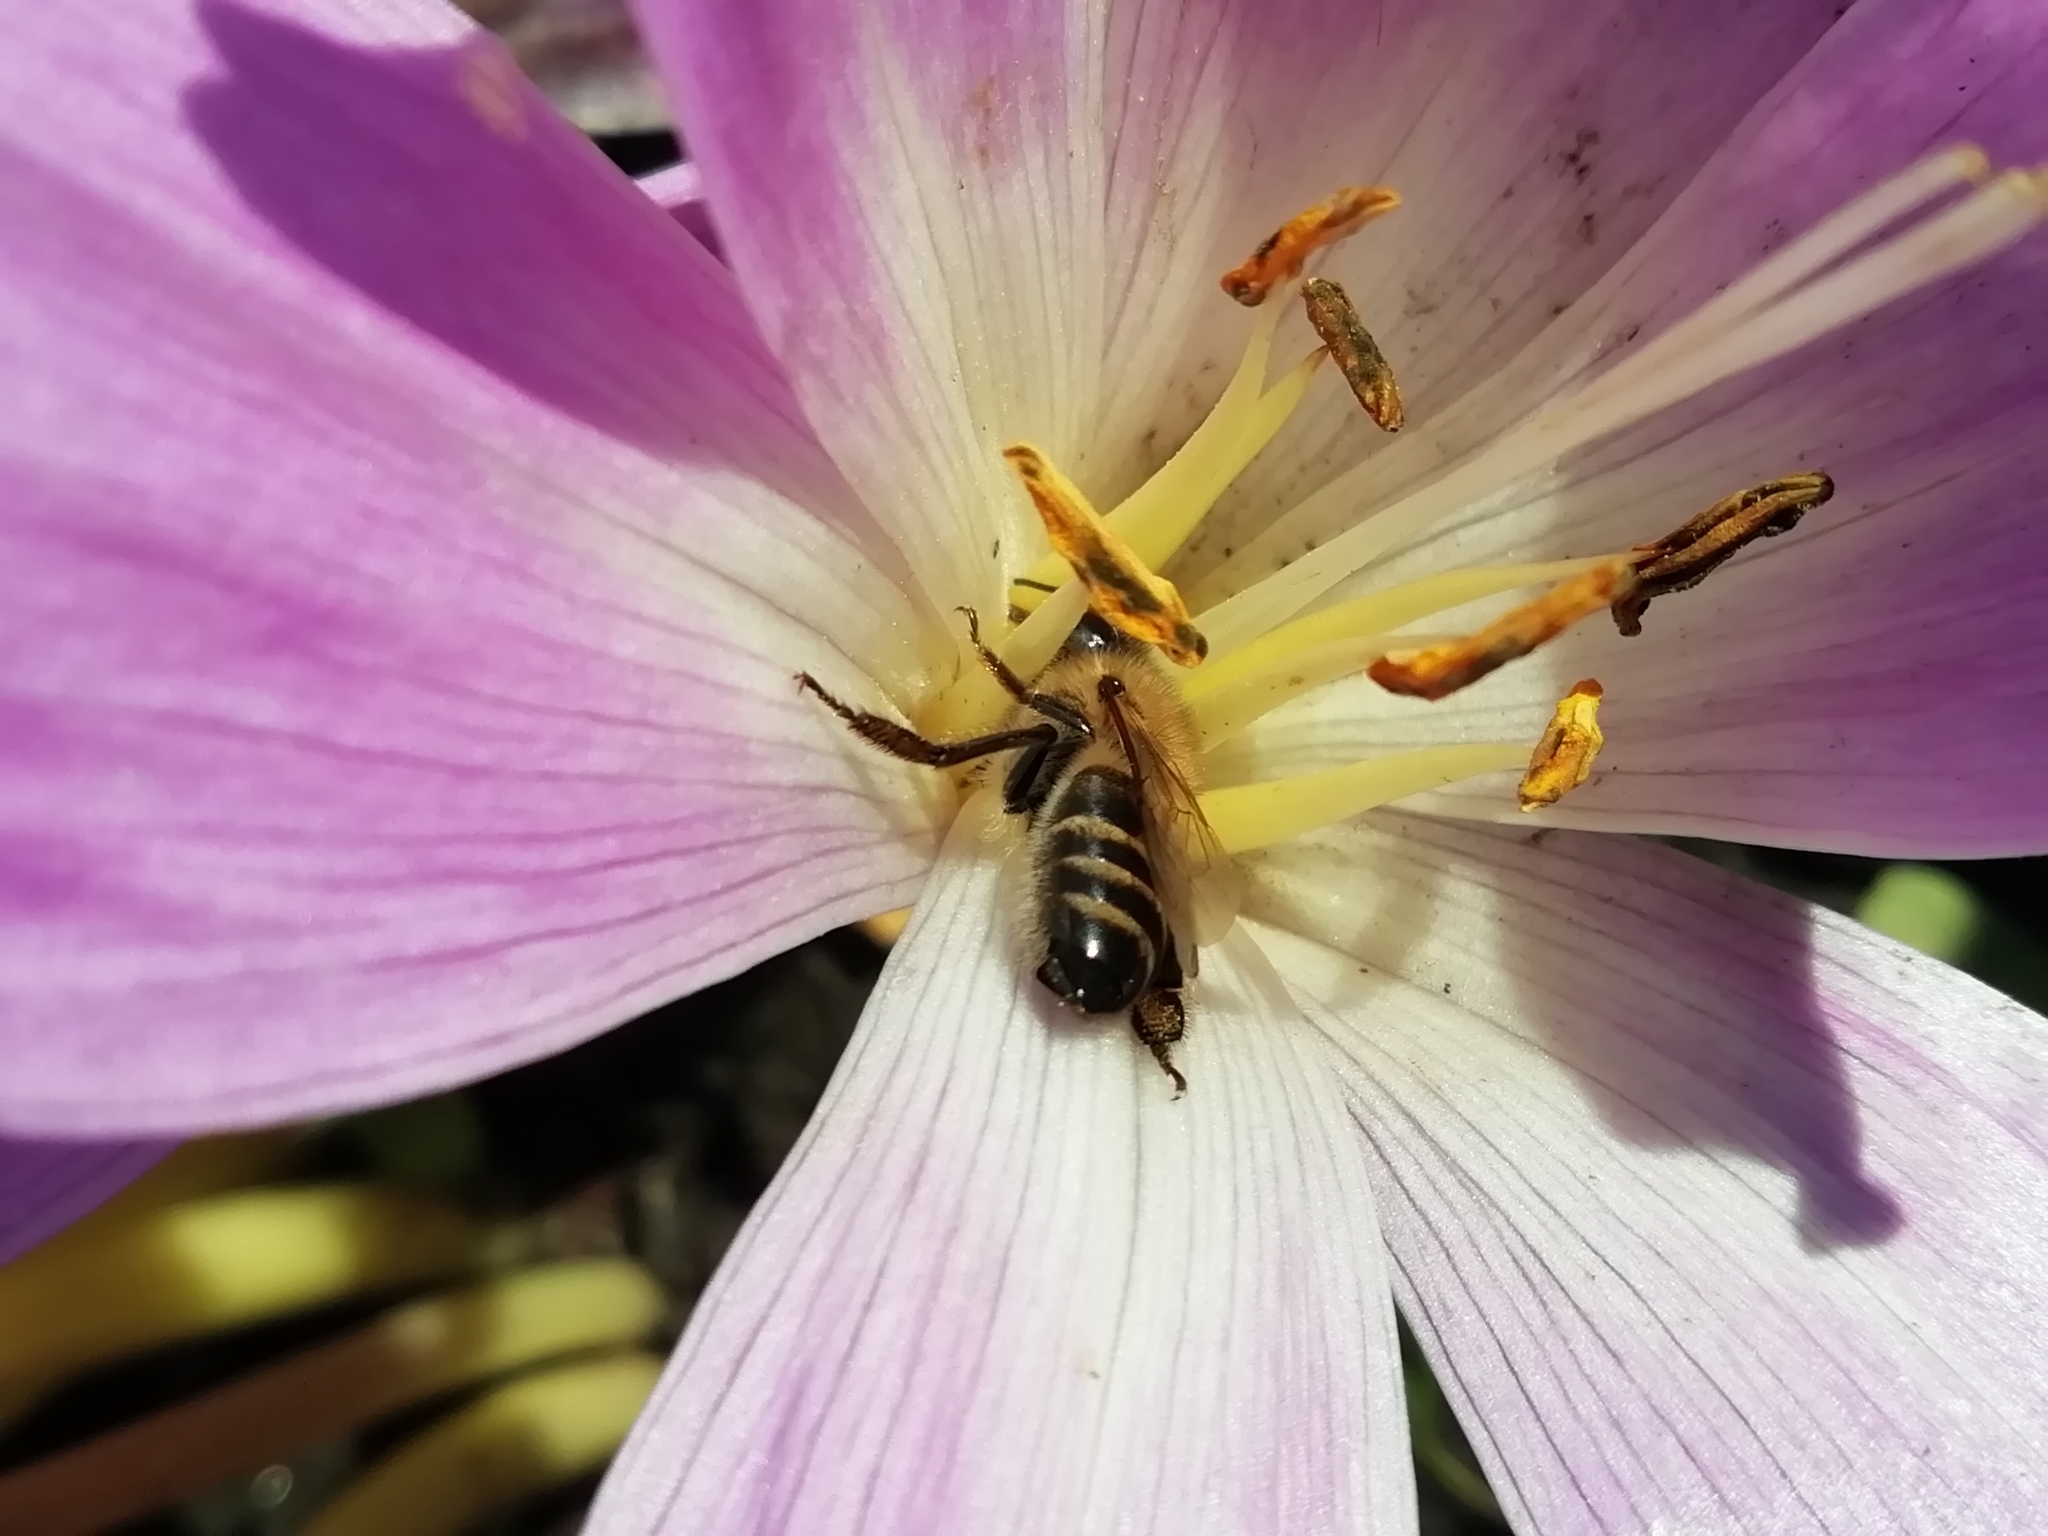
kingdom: Animalia
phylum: Arthropoda
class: Insecta
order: Hymenoptera
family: Apidae
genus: Apis
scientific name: Apis mellifera
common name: Honey bee
